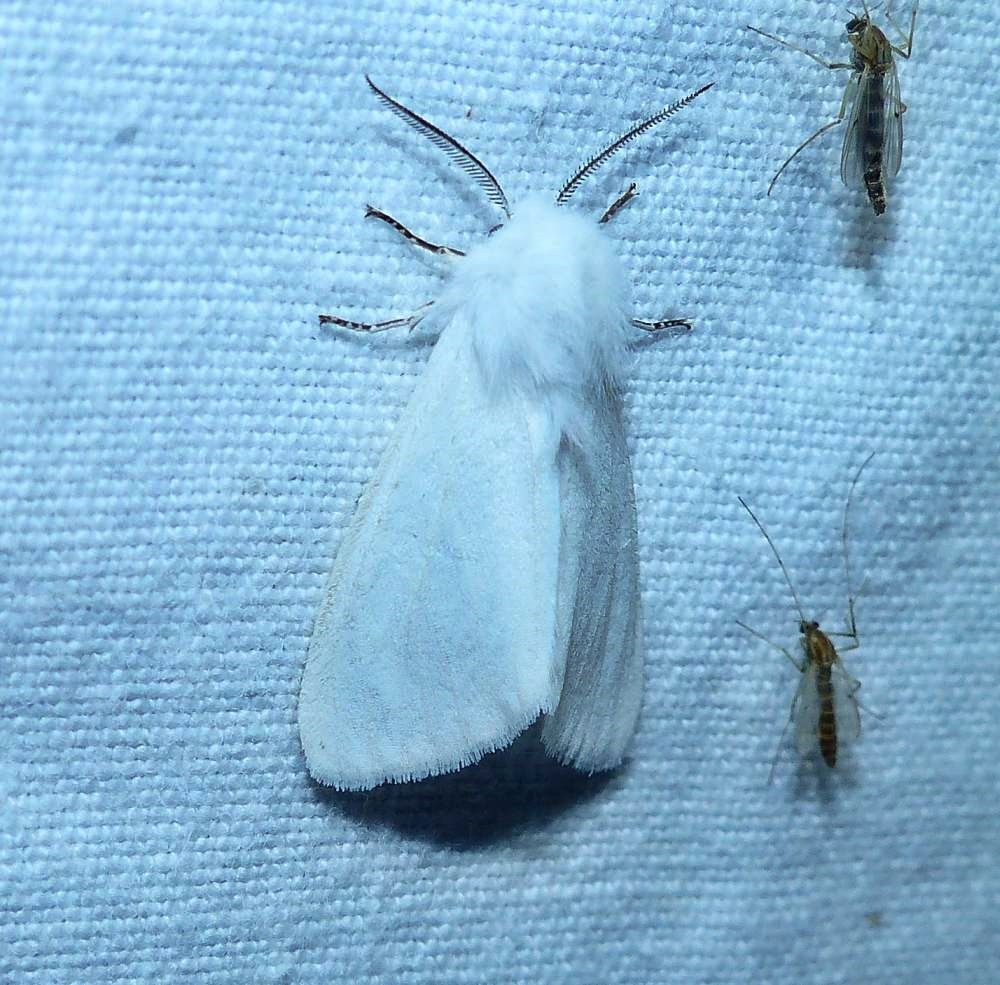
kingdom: Animalia
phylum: Arthropoda
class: Insecta
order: Lepidoptera
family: Erebidae
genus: Hyphantria
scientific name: Hyphantria cunea
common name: American white moth
